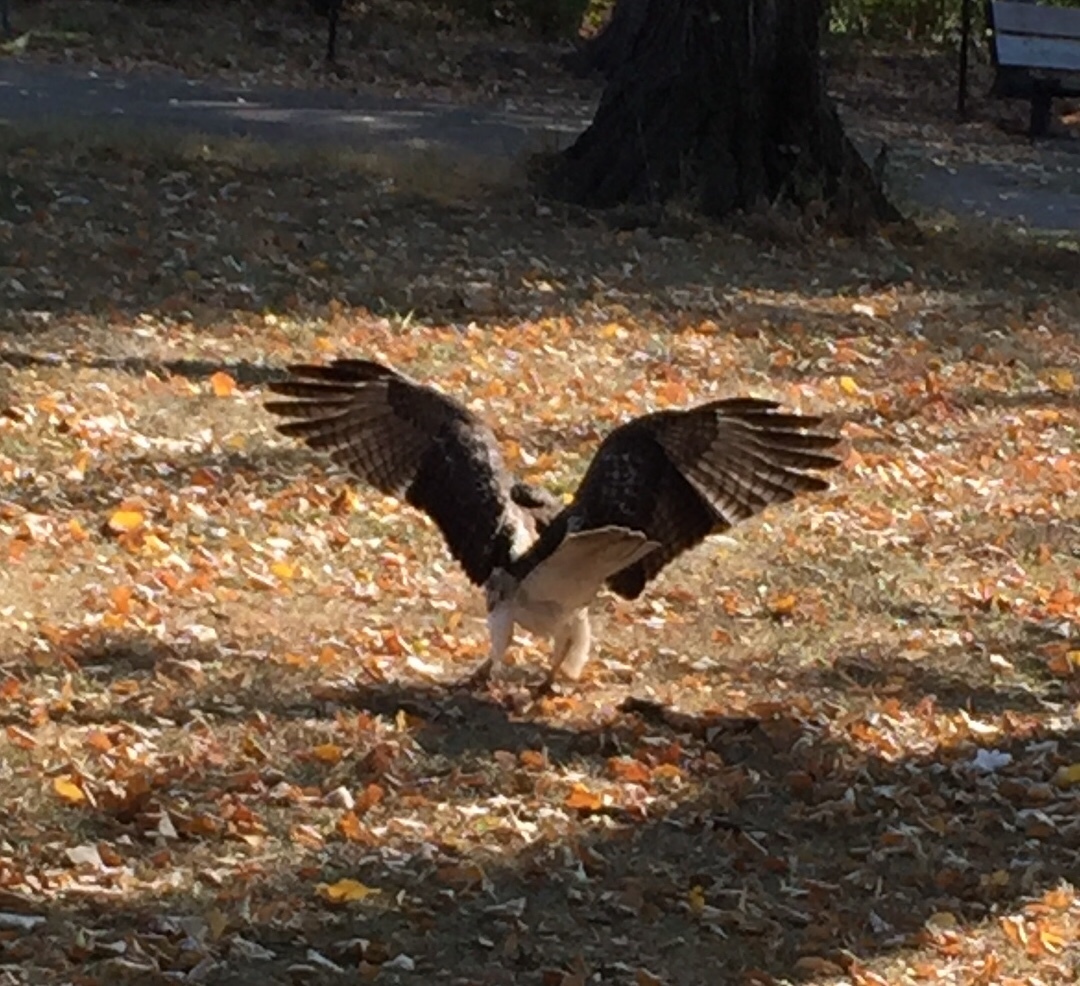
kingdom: Animalia
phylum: Chordata
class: Aves
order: Accipitriformes
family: Accipitridae
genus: Buteo
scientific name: Buteo jamaicensis
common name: Red-tailed hawk
